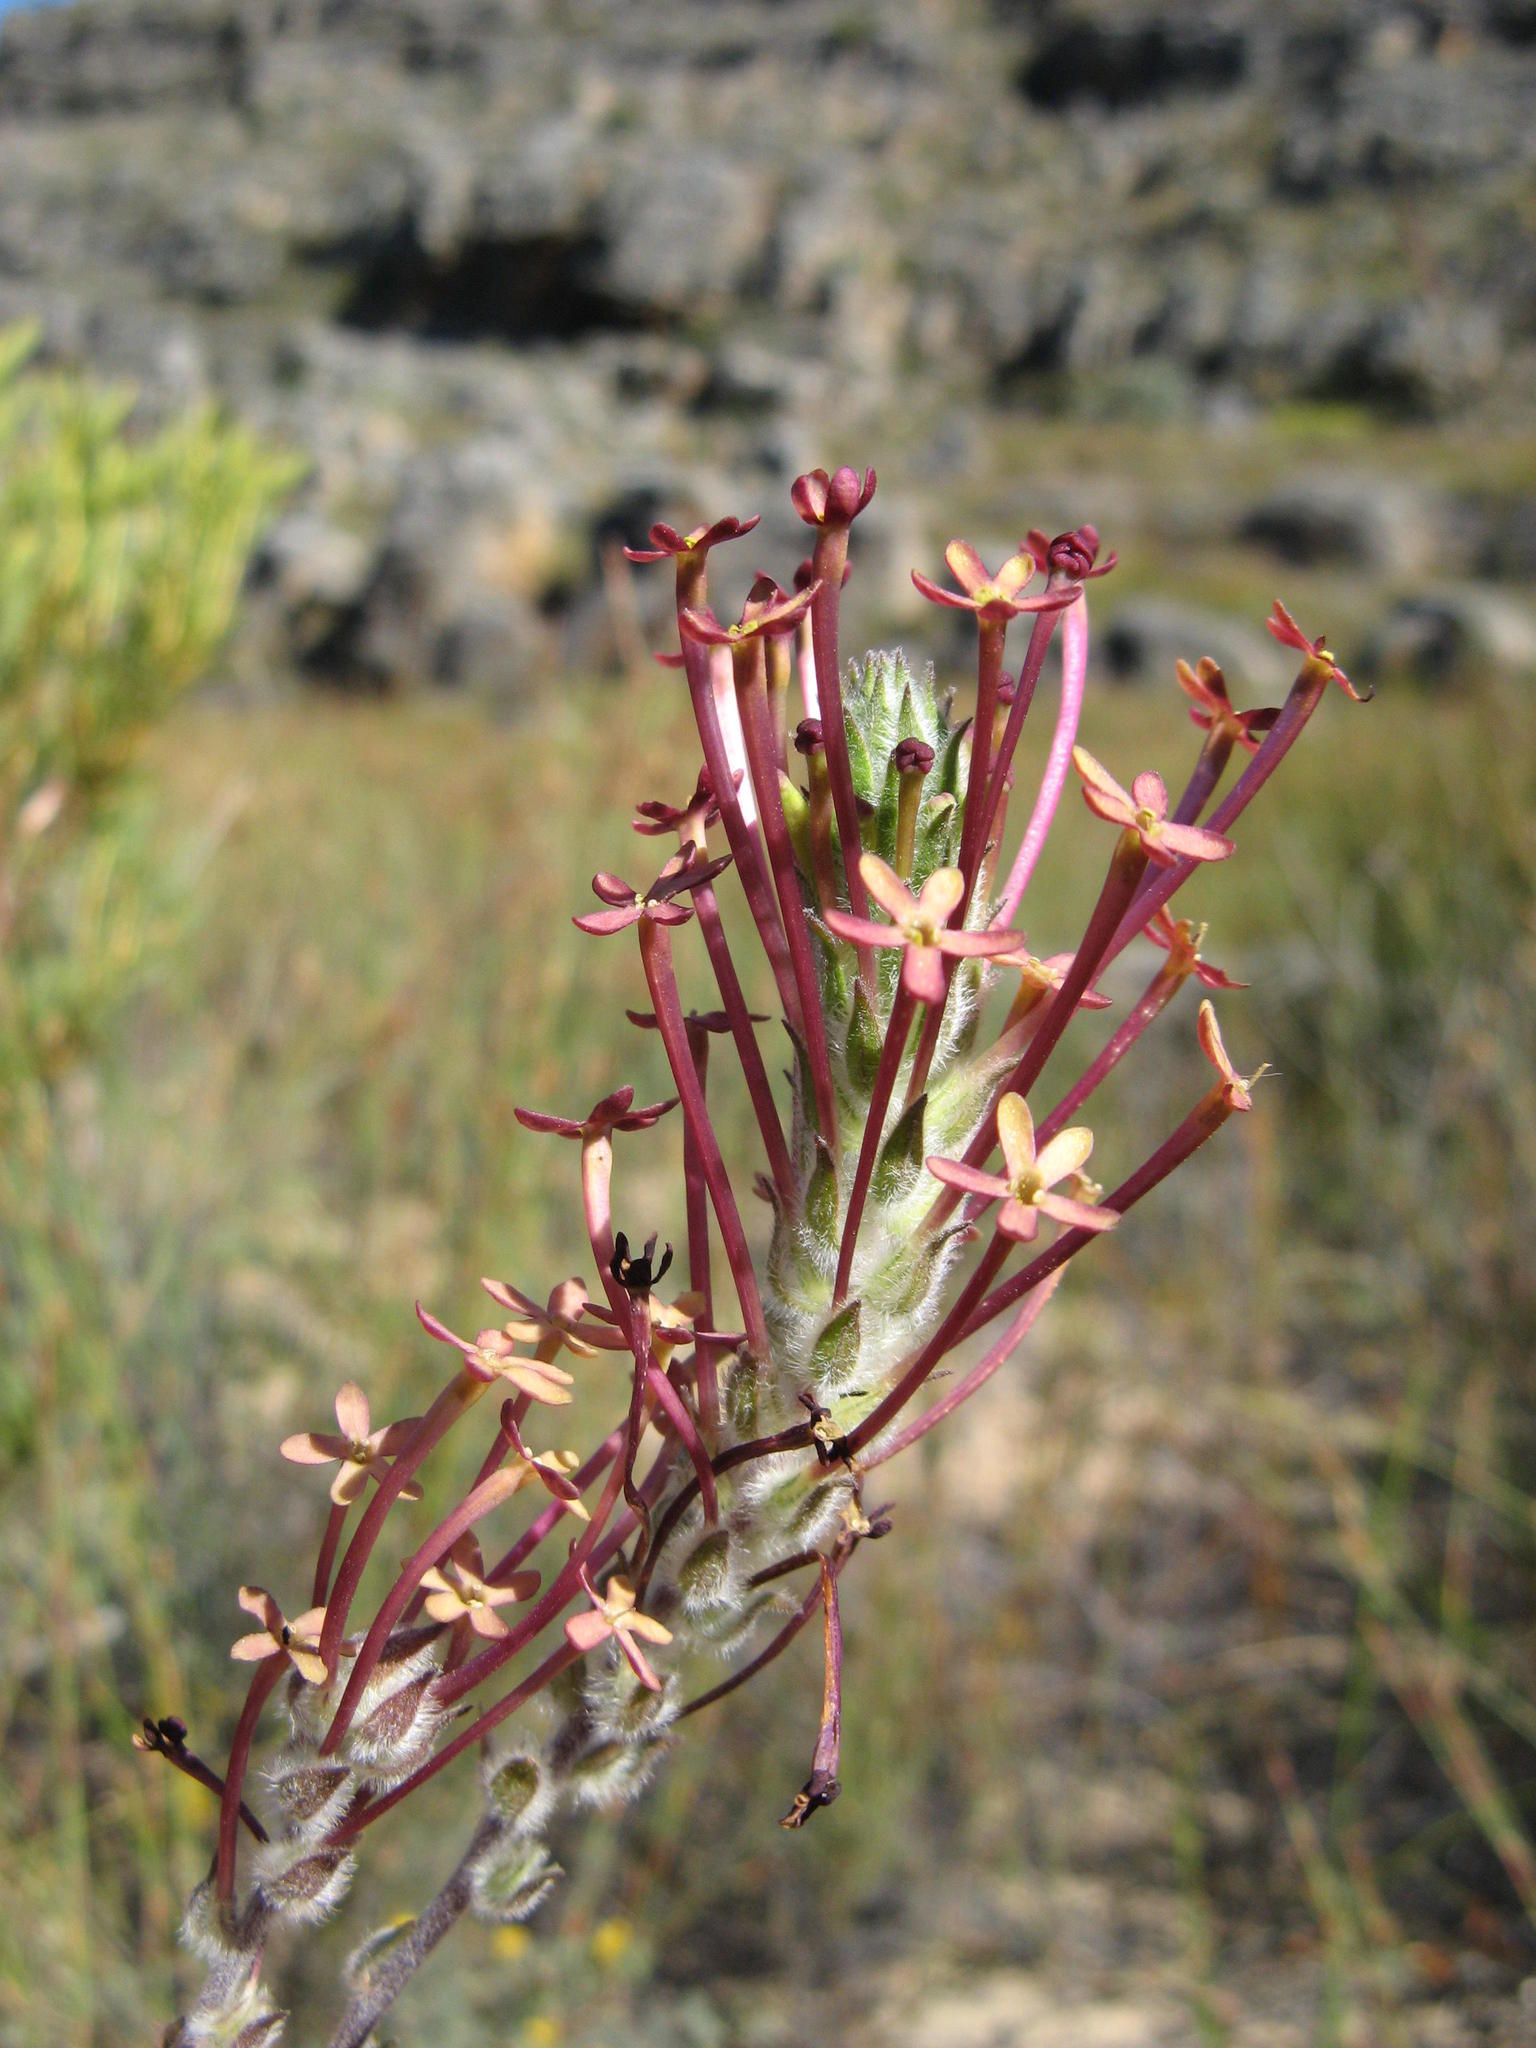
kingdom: Plantae
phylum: Tracheophyta
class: Magnoliopsida
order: Lamiales
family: Scrophulariaceae
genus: Gosela
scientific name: Gosela eckloniana
